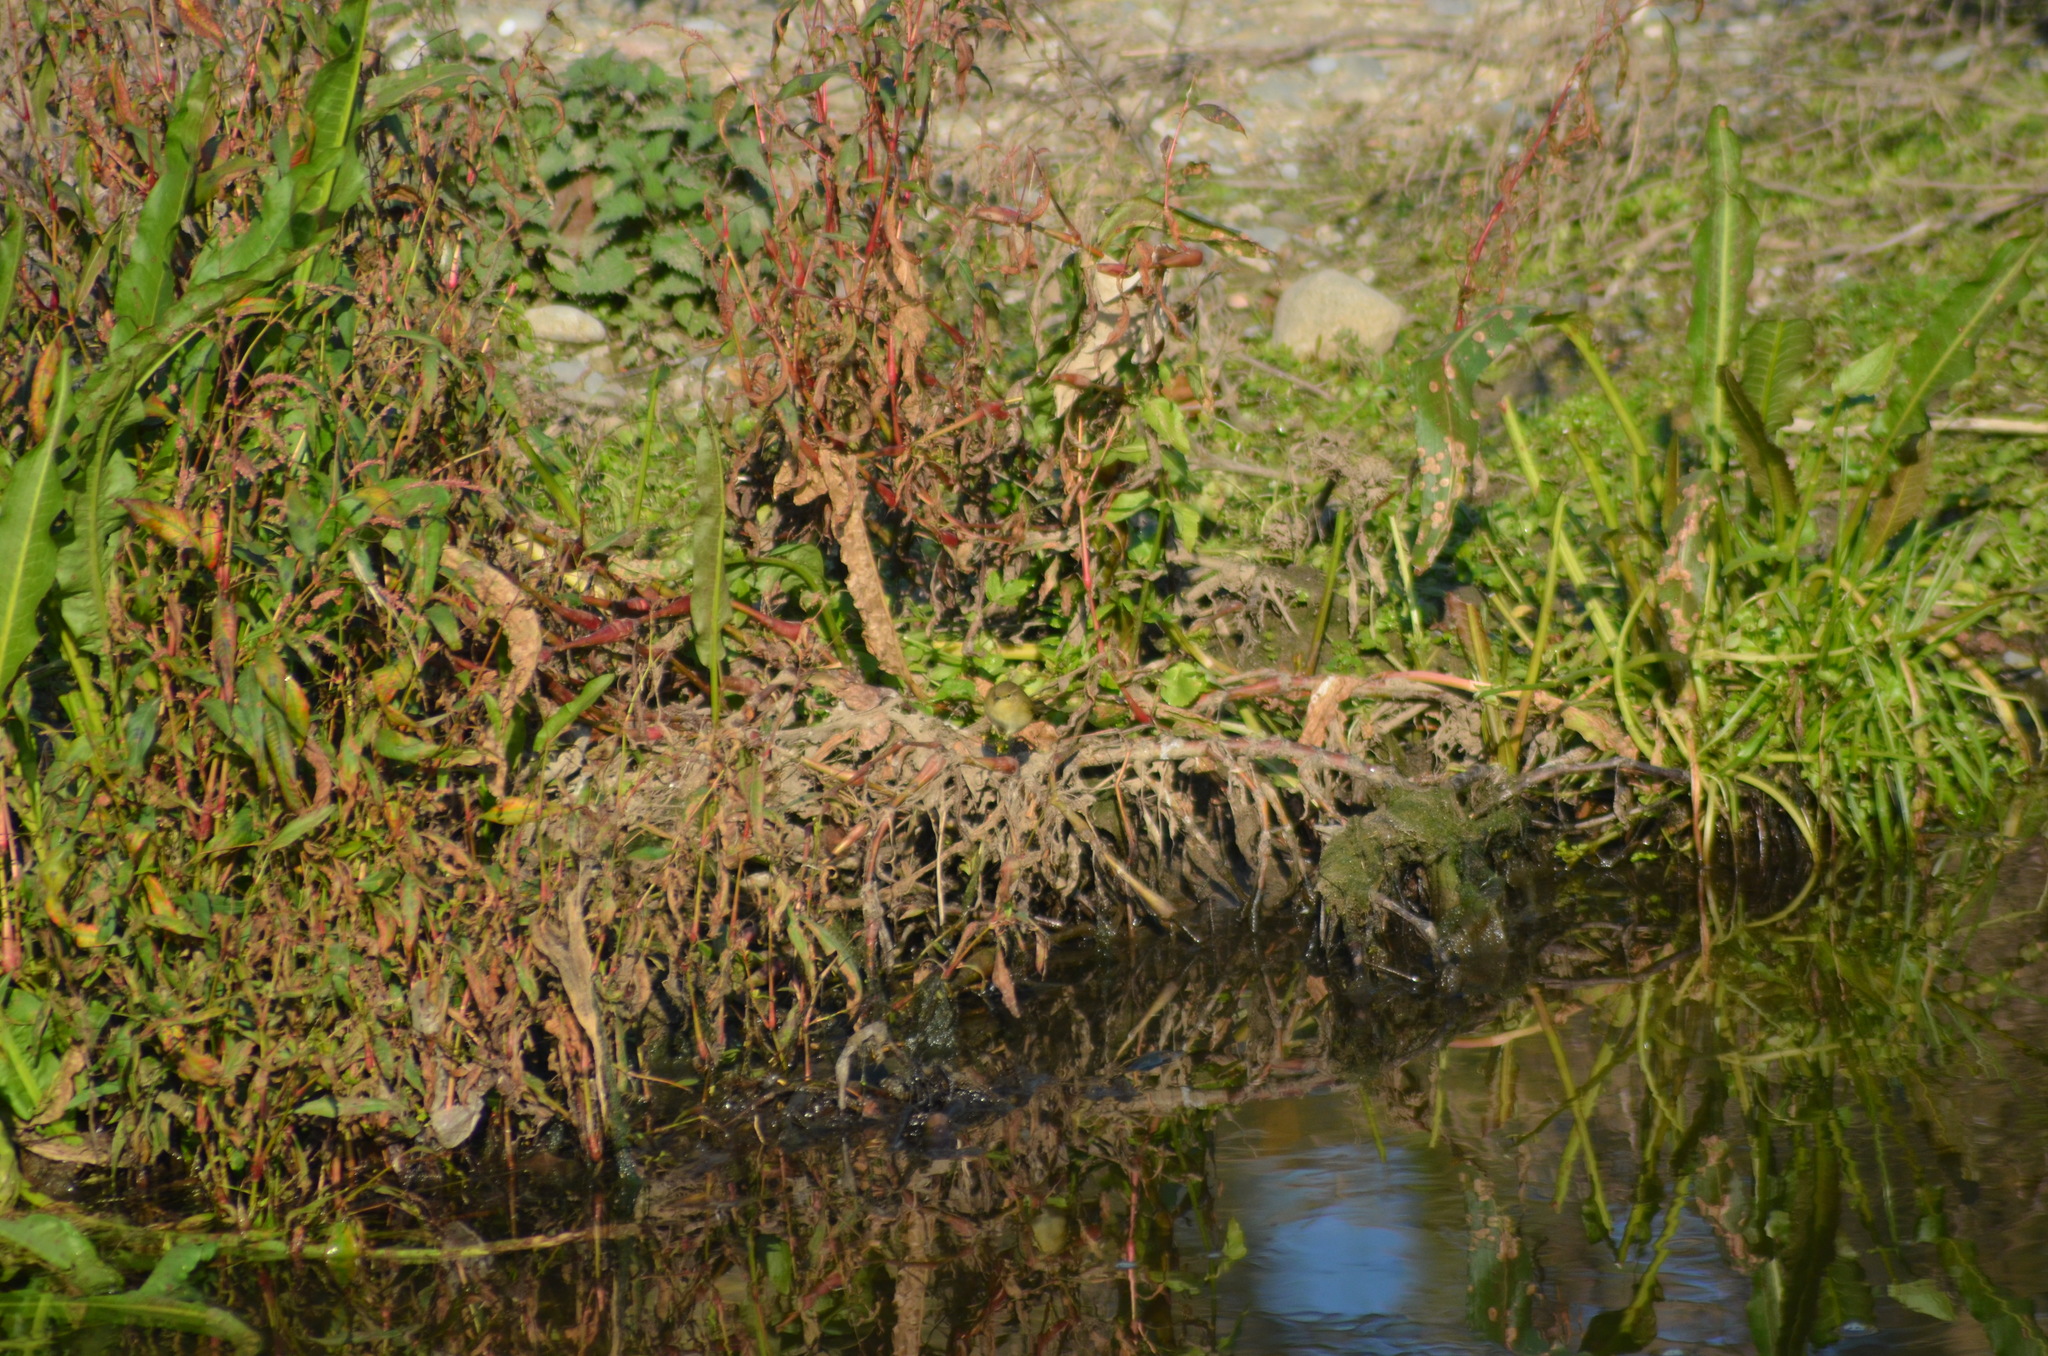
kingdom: Animalia
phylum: Chordata
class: Aves
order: Passeriformes
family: Phylloscopidae
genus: Phylloscopus
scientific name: Phylloscopus collybita
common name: Common chiffchaff
